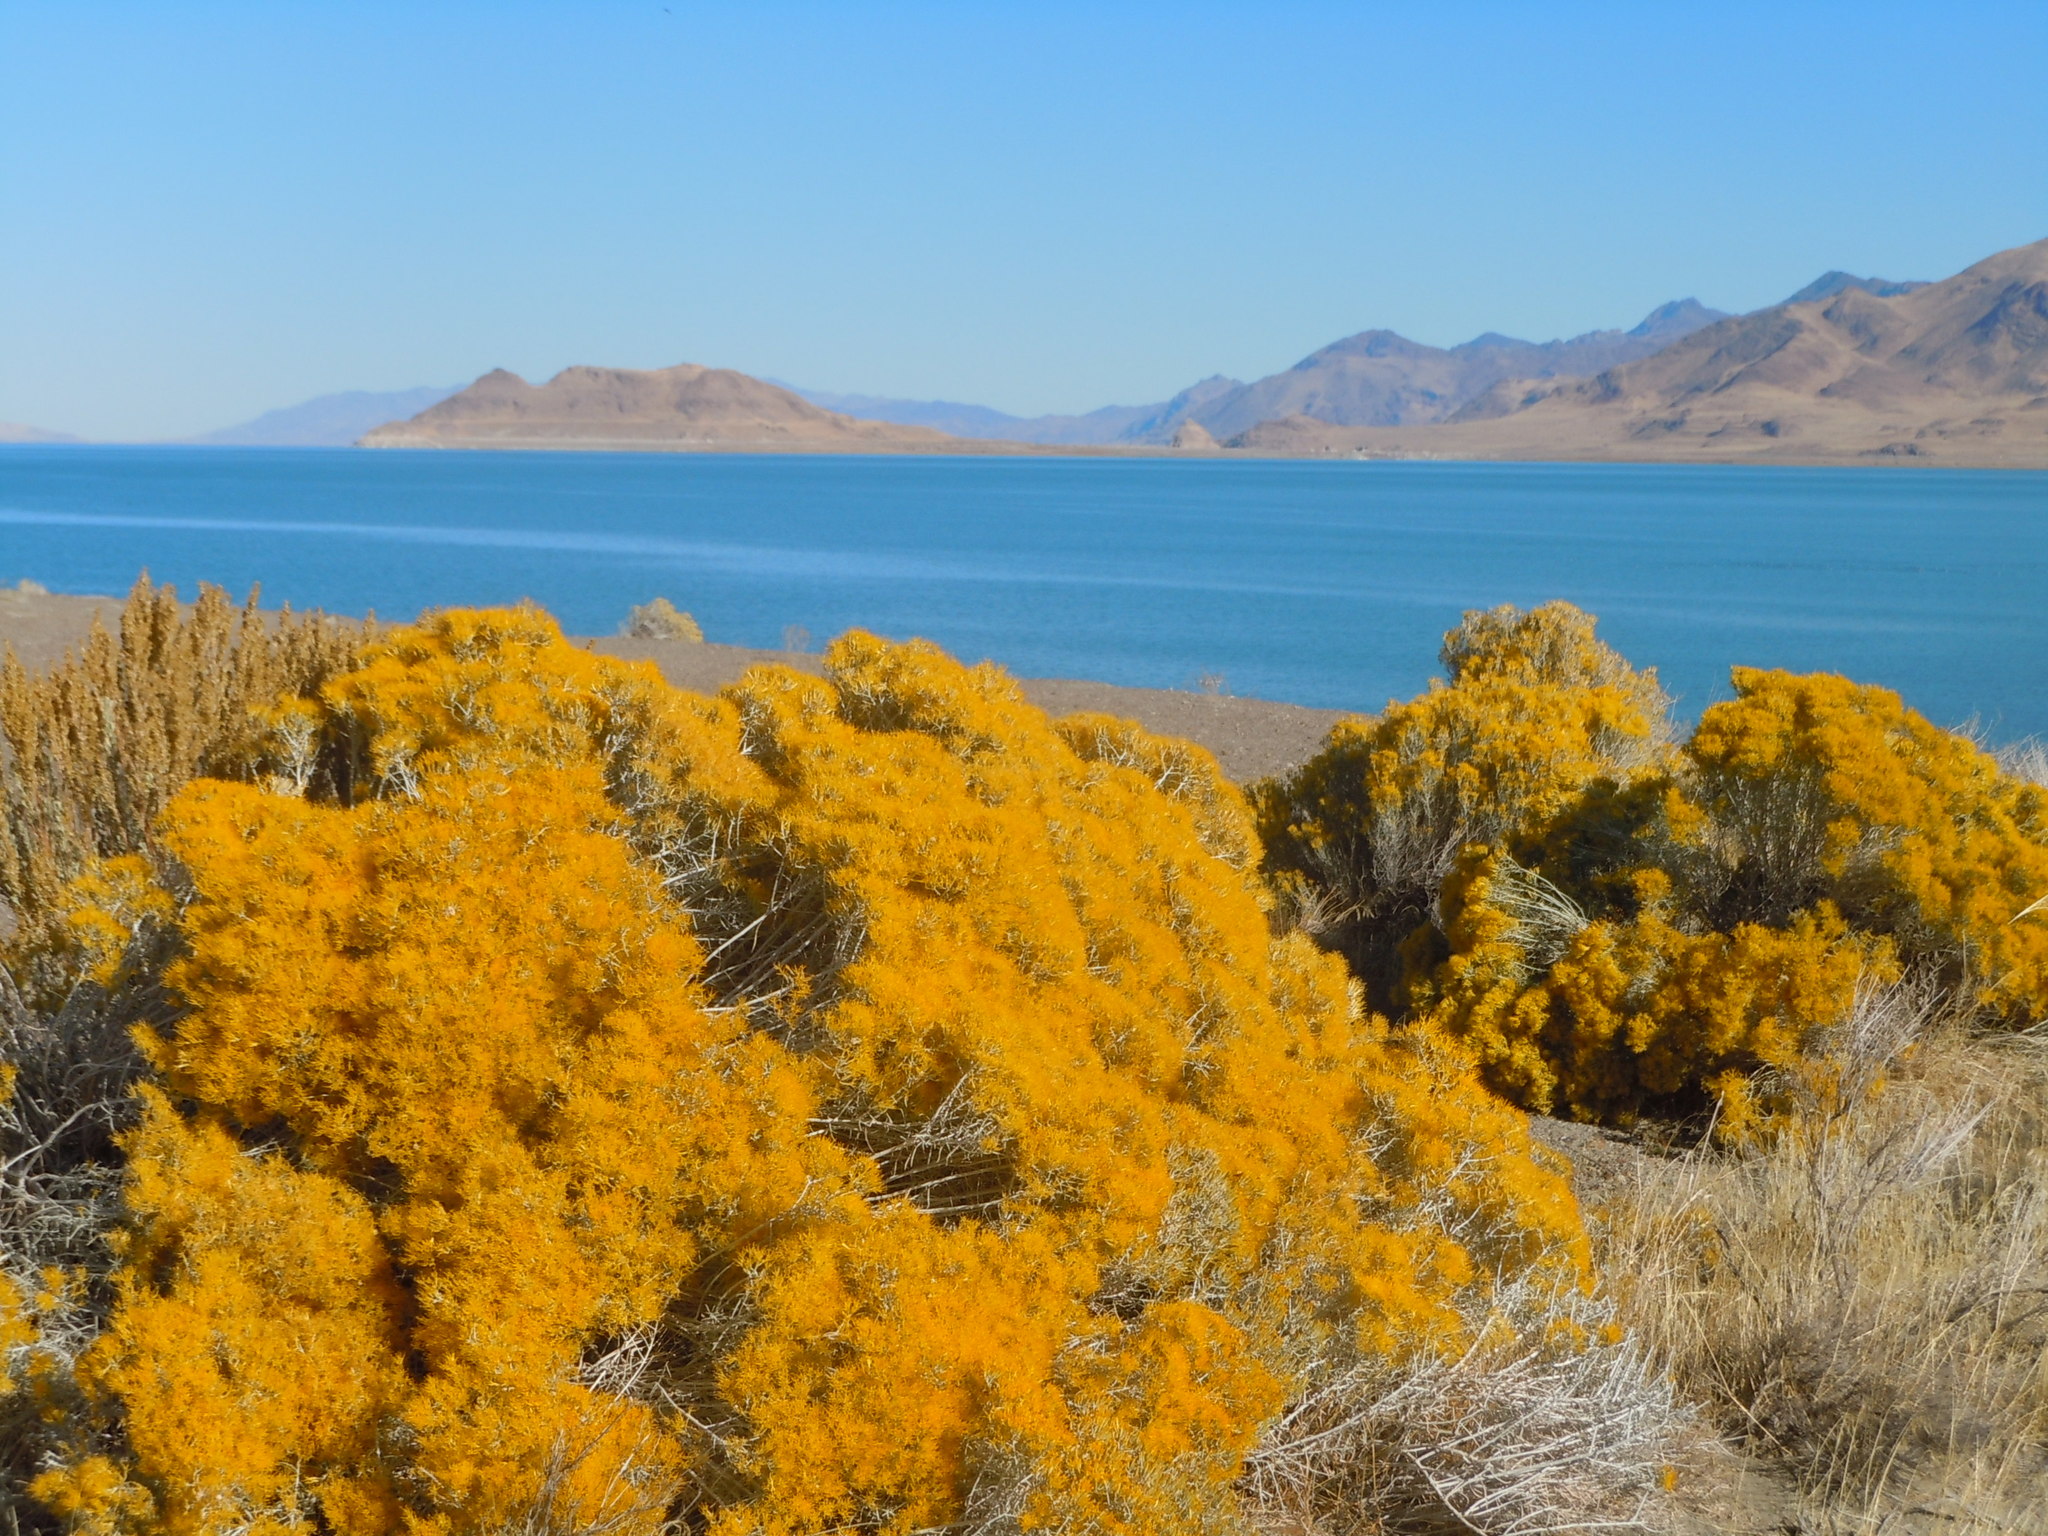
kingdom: Plantae
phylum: Tracheophyta
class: Magnoliopsida
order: Asterales
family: Asteraceae
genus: Ericameria
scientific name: Ericameria nauseosa
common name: Rubber rabbitbrush
